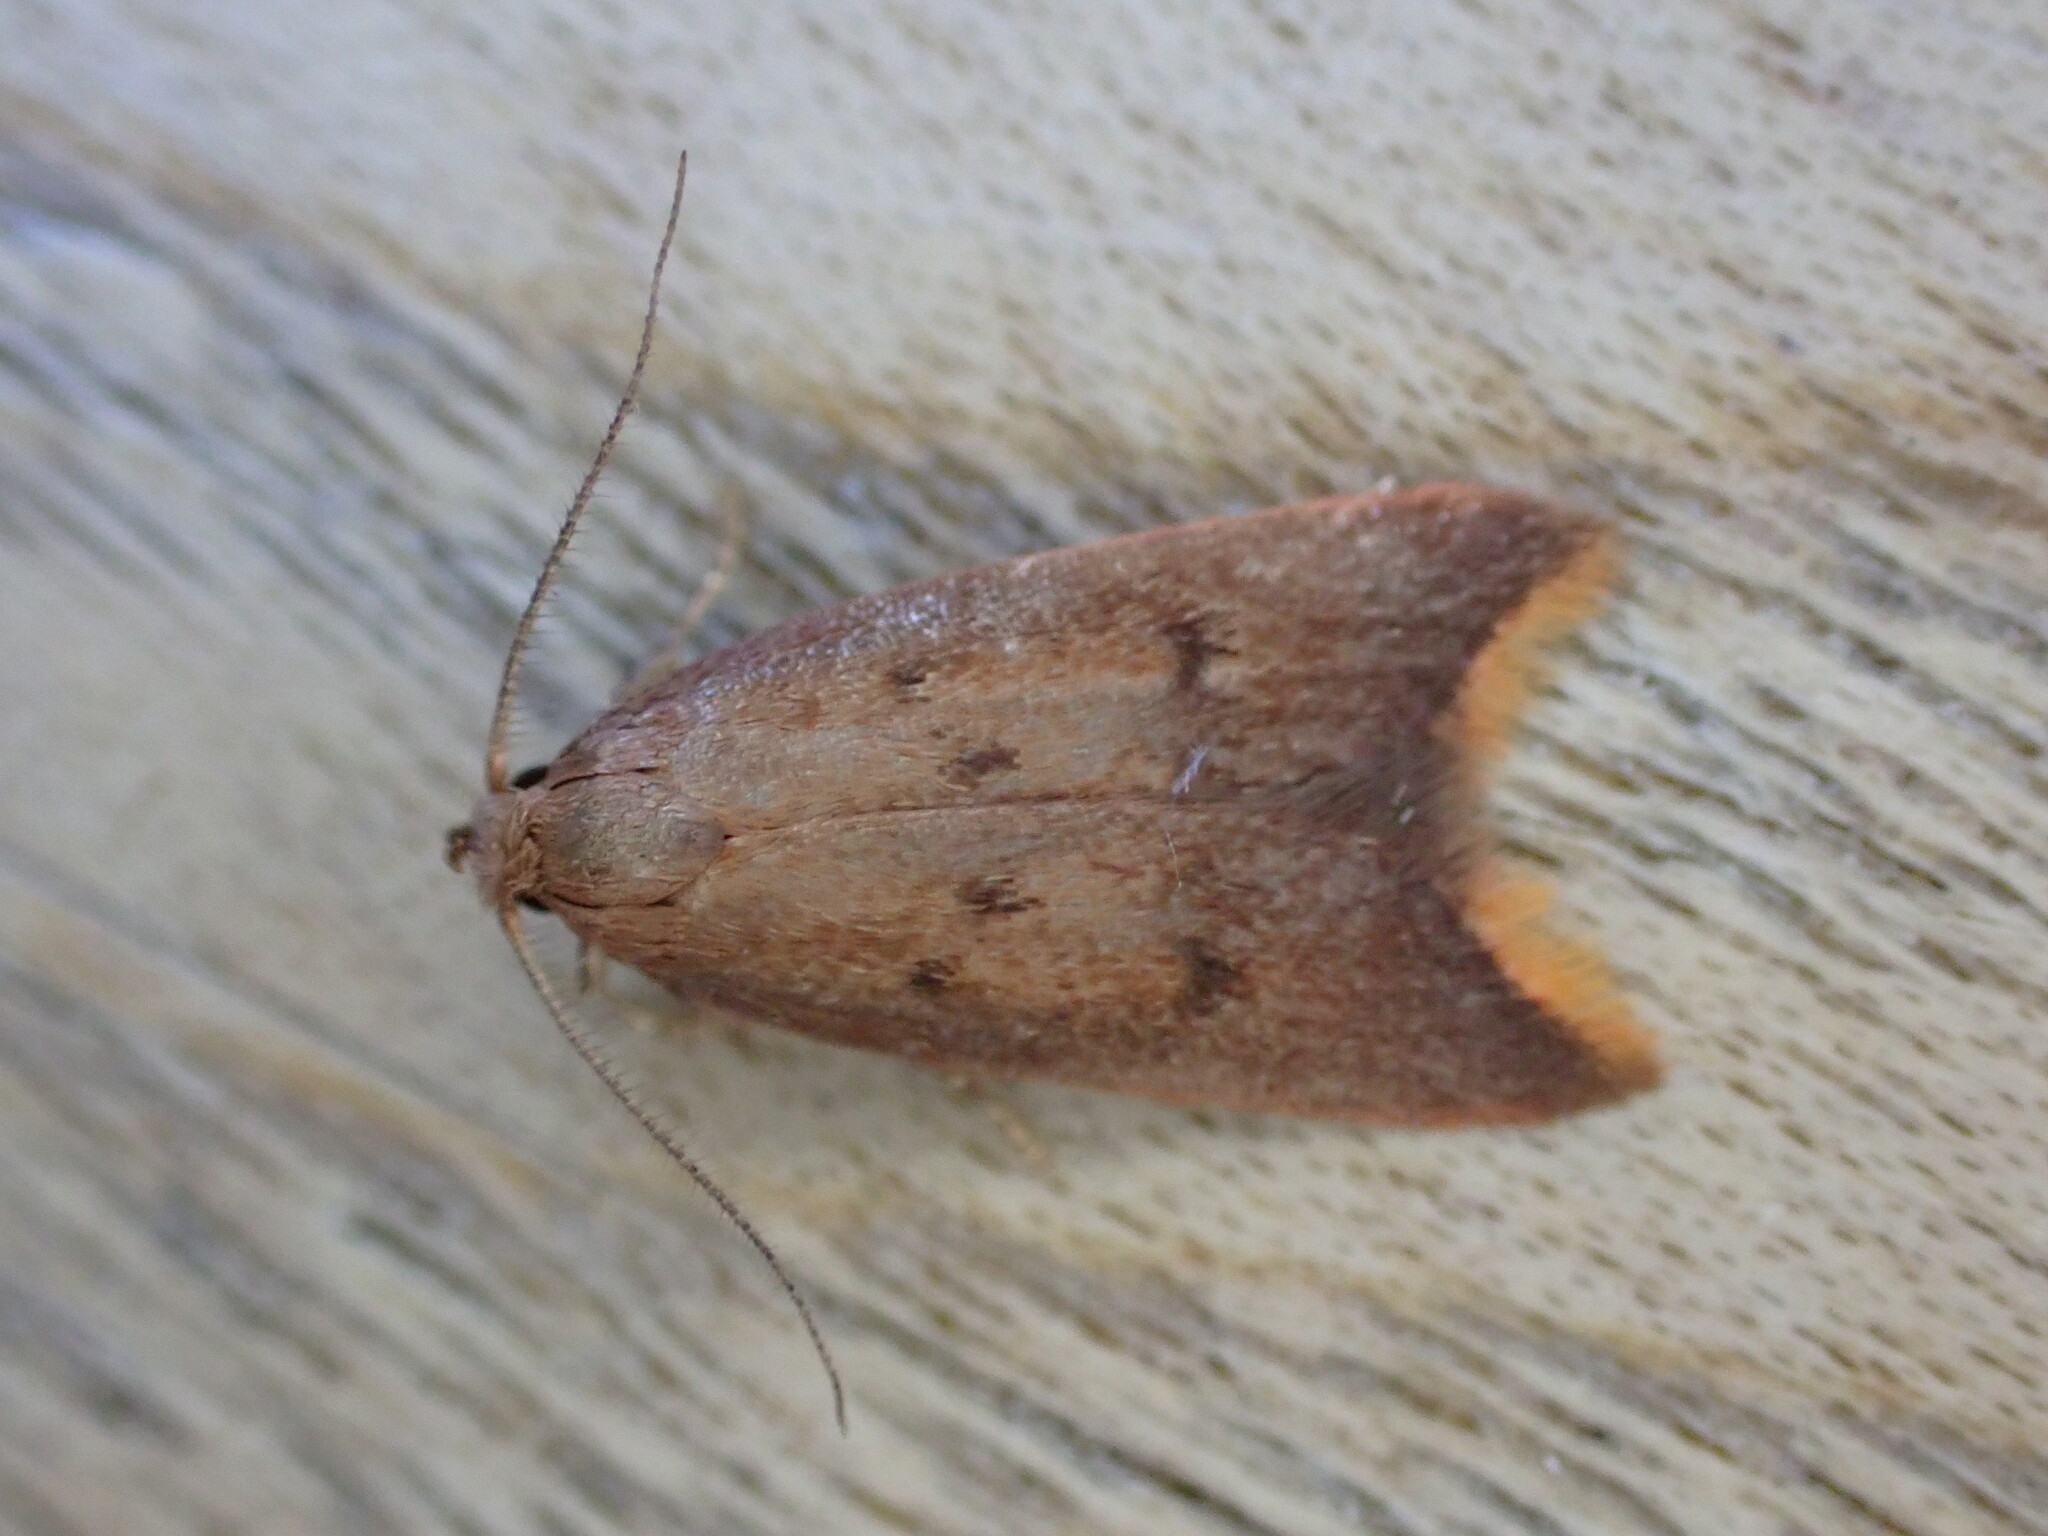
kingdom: Animalia
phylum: Arthropoda
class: Insecta
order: Lepidoptera
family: Oecophoridae
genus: Tachystola
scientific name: Tachystola acroxantha
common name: Ruddy streak
